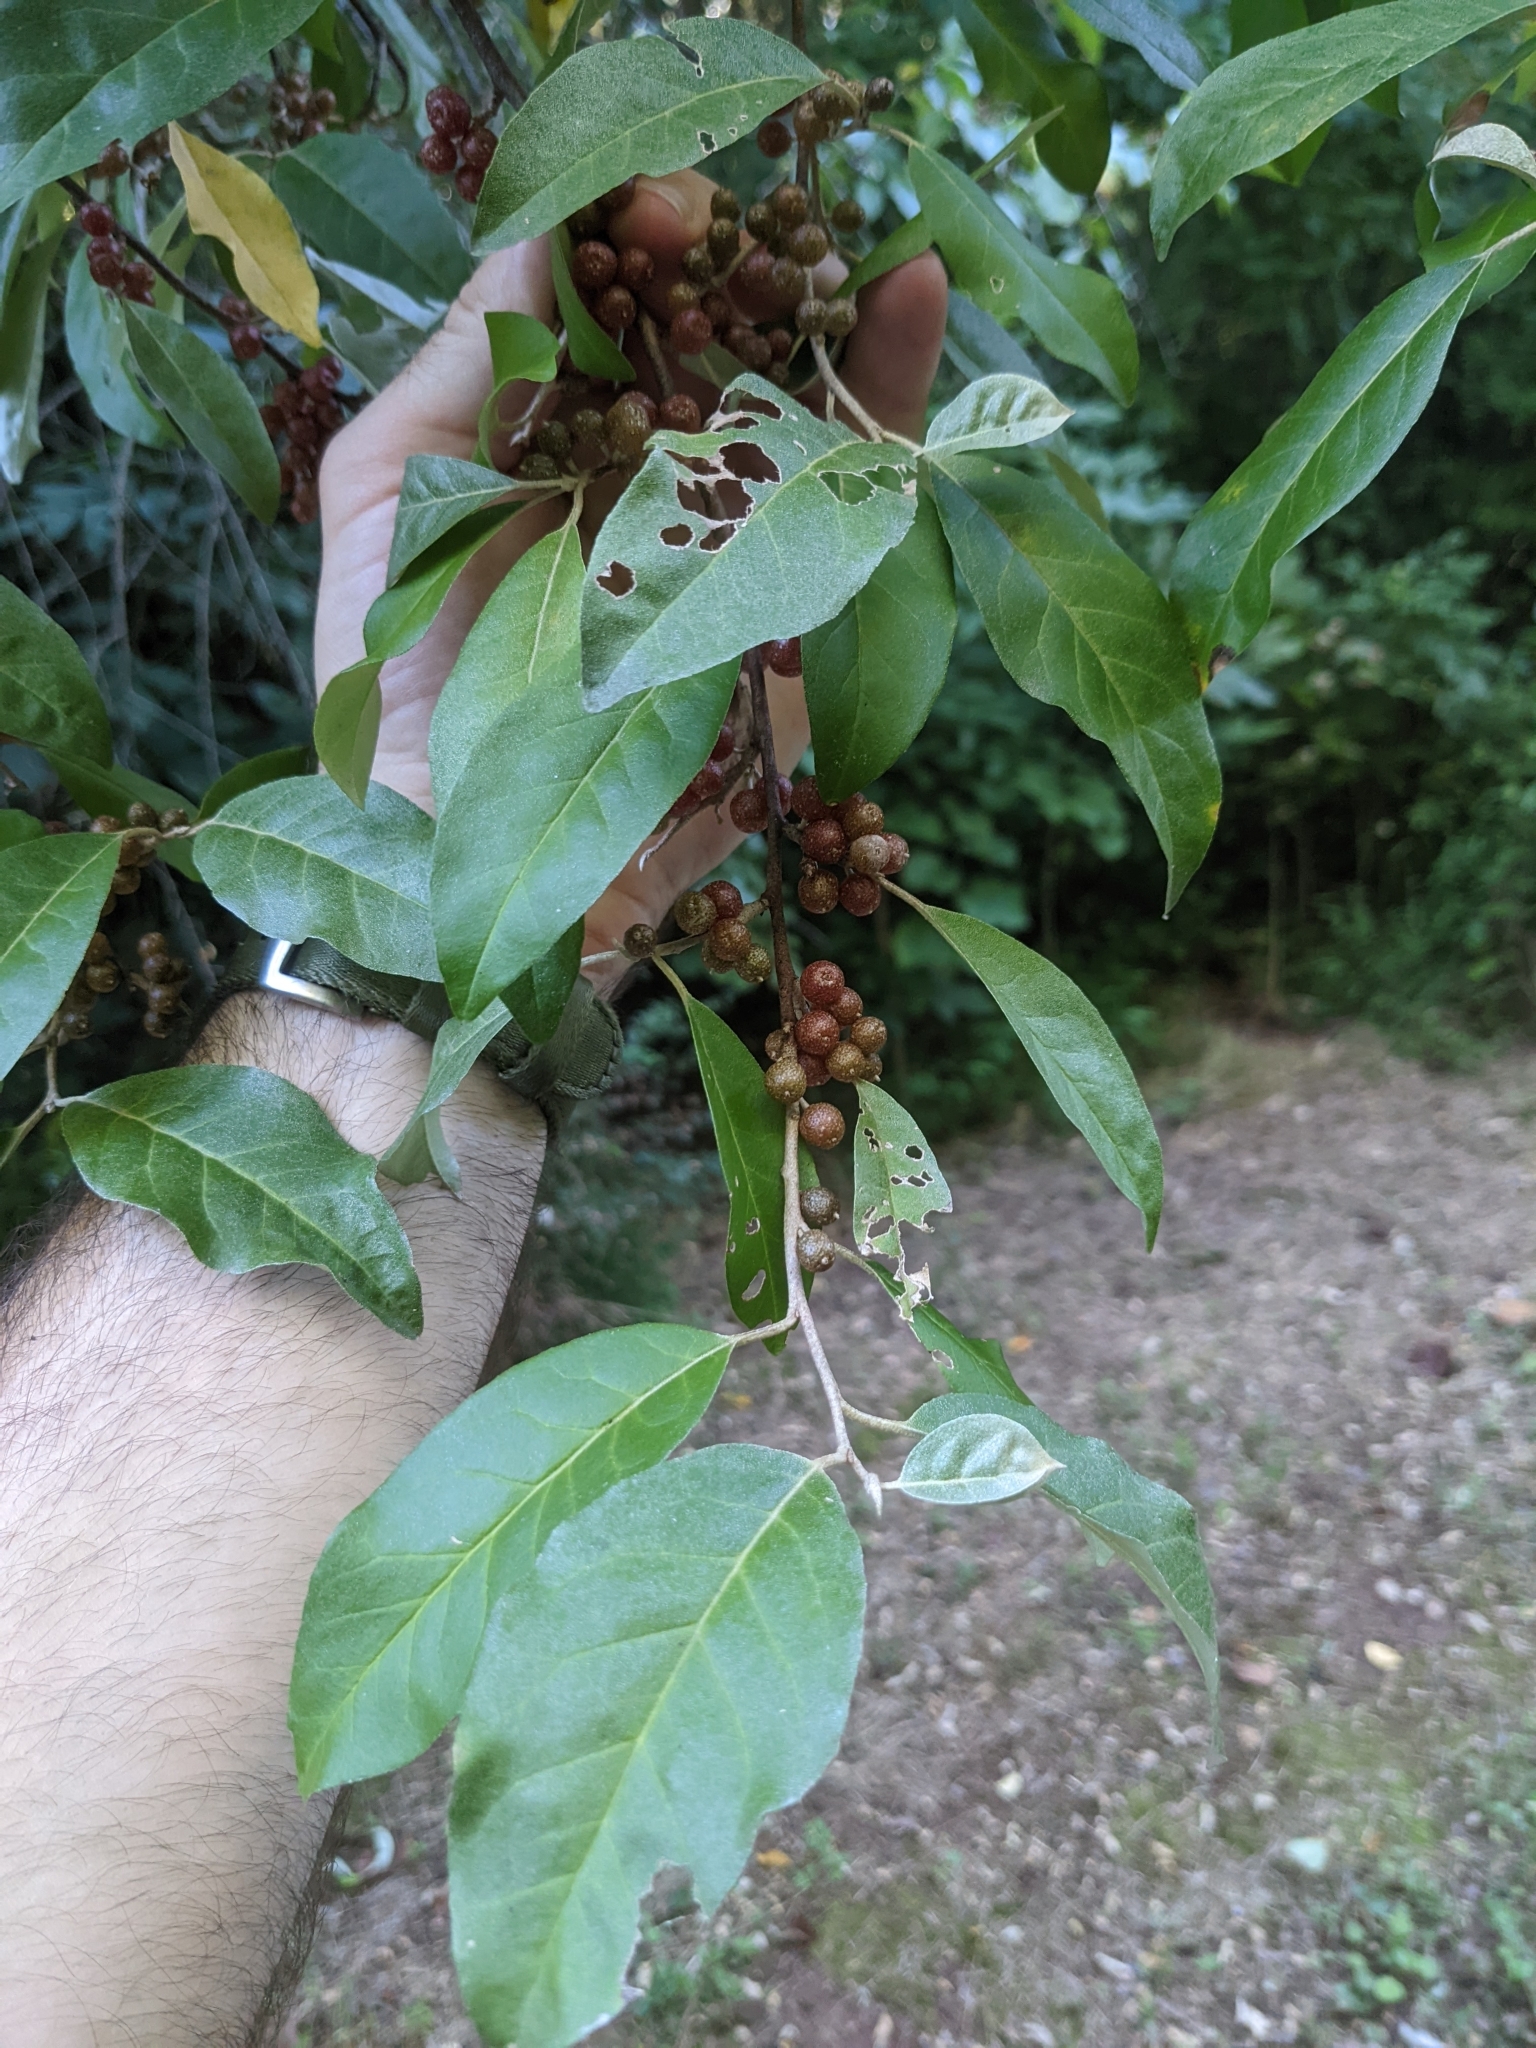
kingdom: Plantae
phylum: Tracheophyta
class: Magnoliopsida
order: Rosales
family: Elaeagnaceae
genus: Elaeagnus
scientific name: Elaeagnus umbellata
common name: Autumn olive
